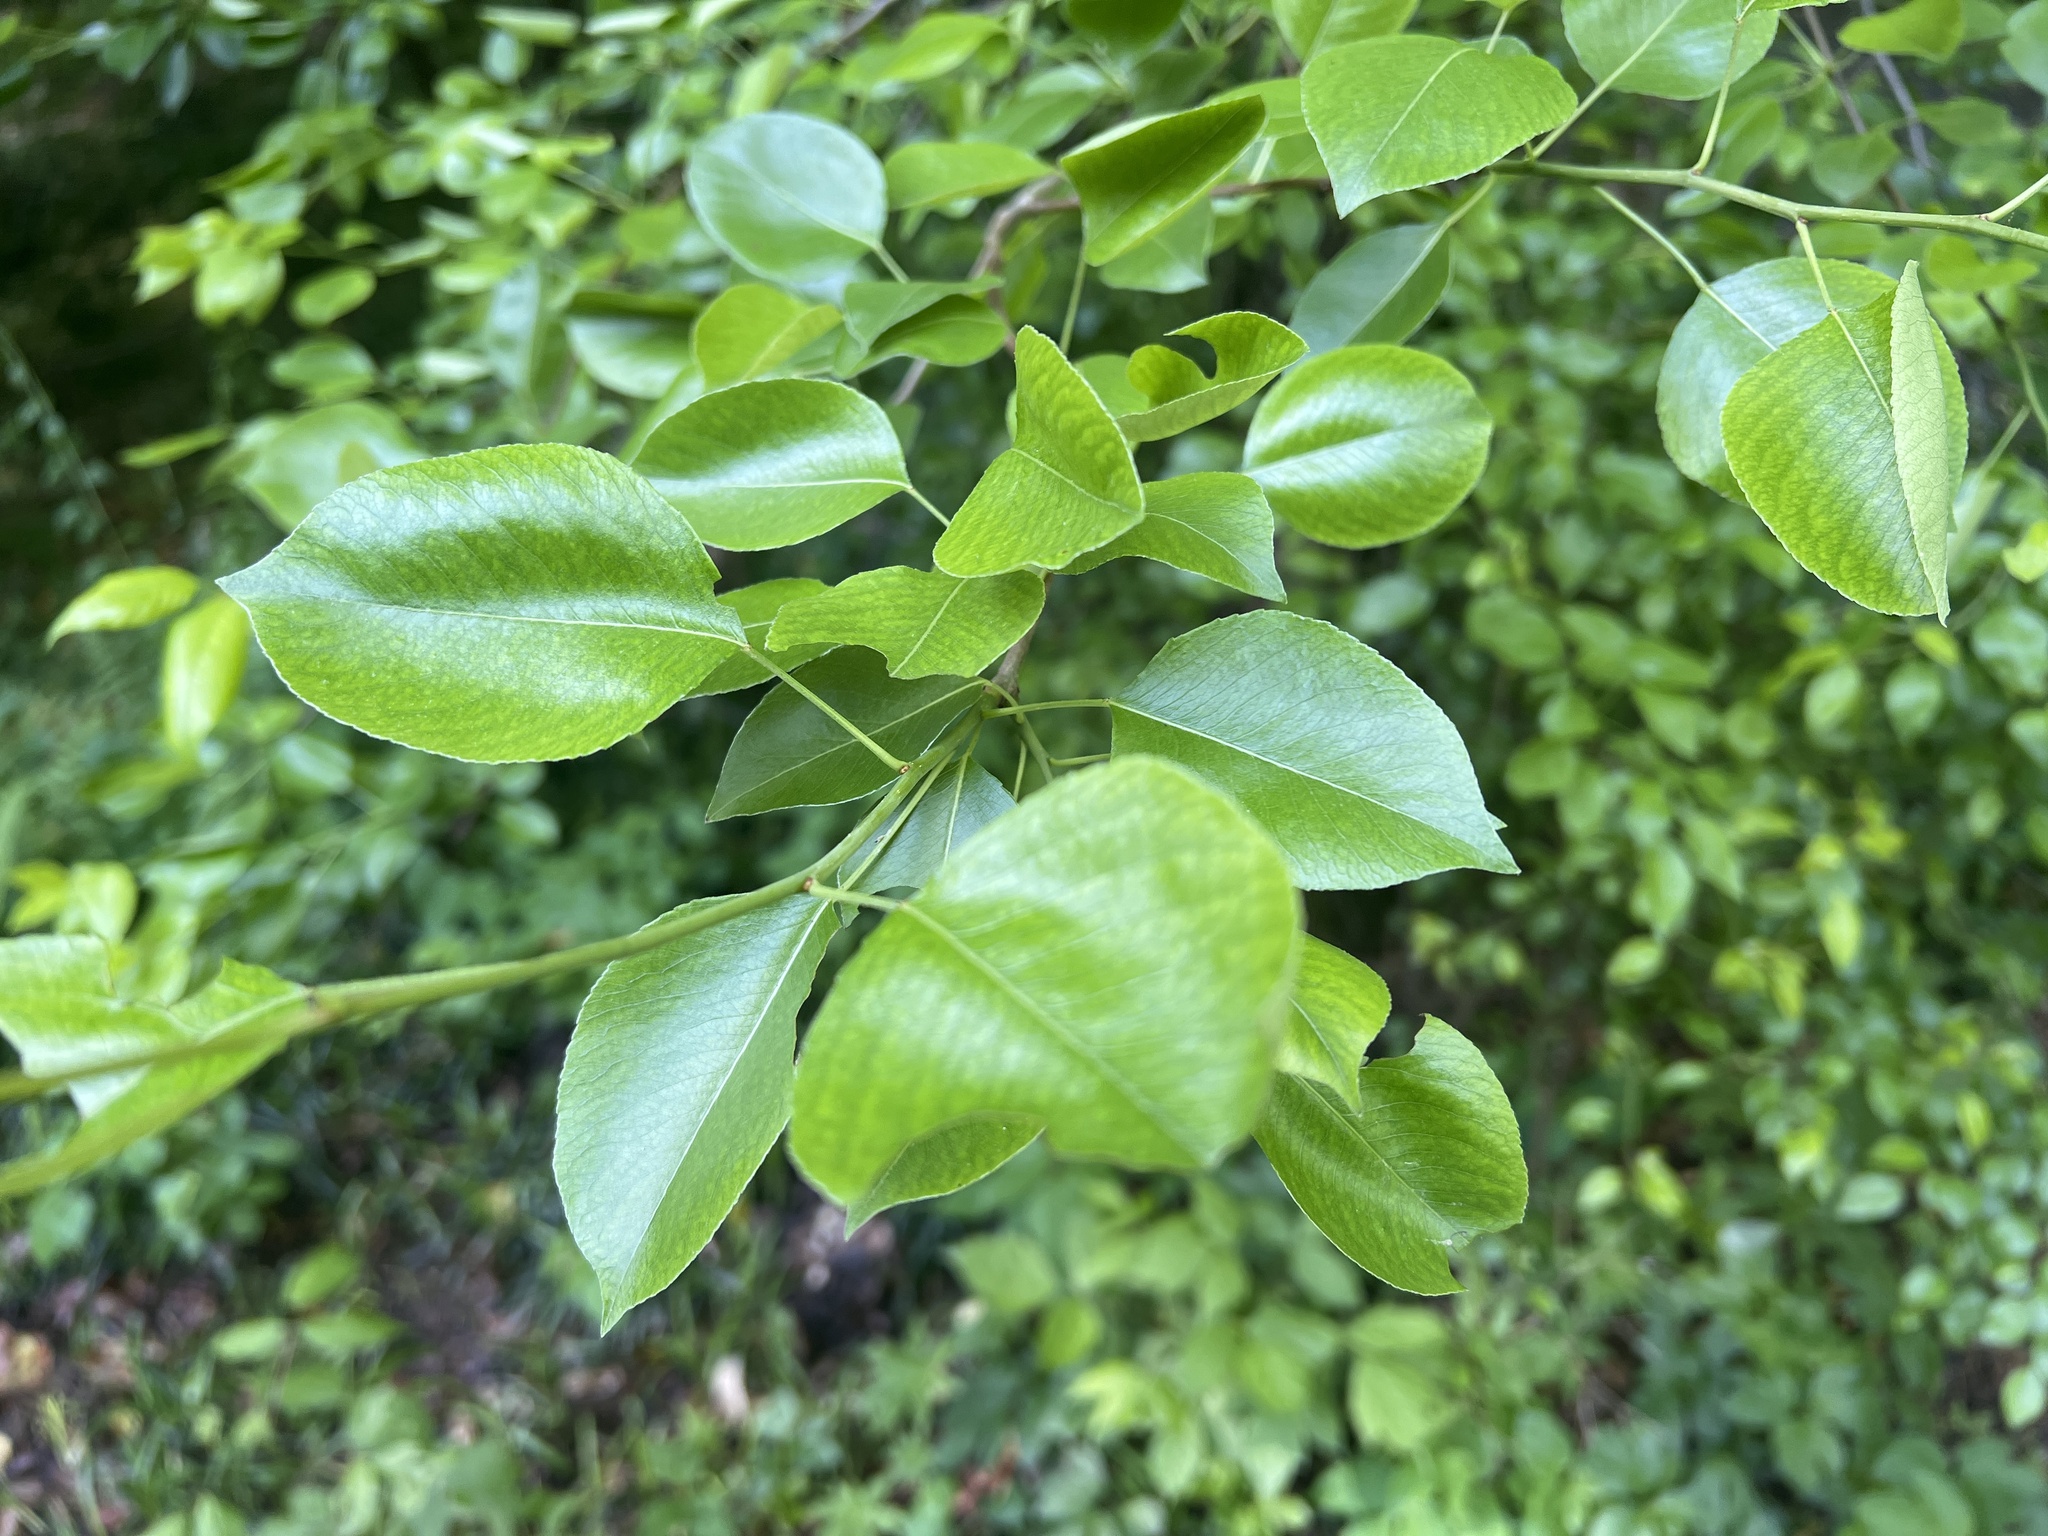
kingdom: Plantae
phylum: Tracheophyta
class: Magnoliopsida
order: Rosales
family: Rosaceae
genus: Pyrus
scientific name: Pyrus calleryana
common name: Callery pear
